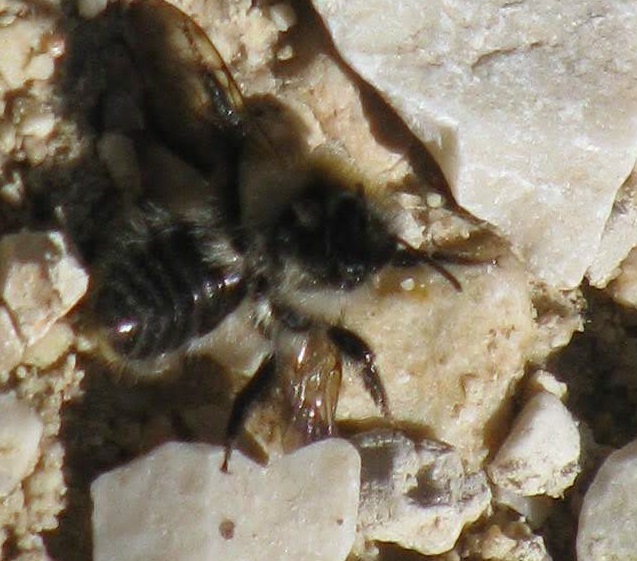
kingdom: Animalia
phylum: Arthropoda
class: Insecta
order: Hymenoptera
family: Apidae
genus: Bombus
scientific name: Bombus pascuorum
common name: Common carder bee
